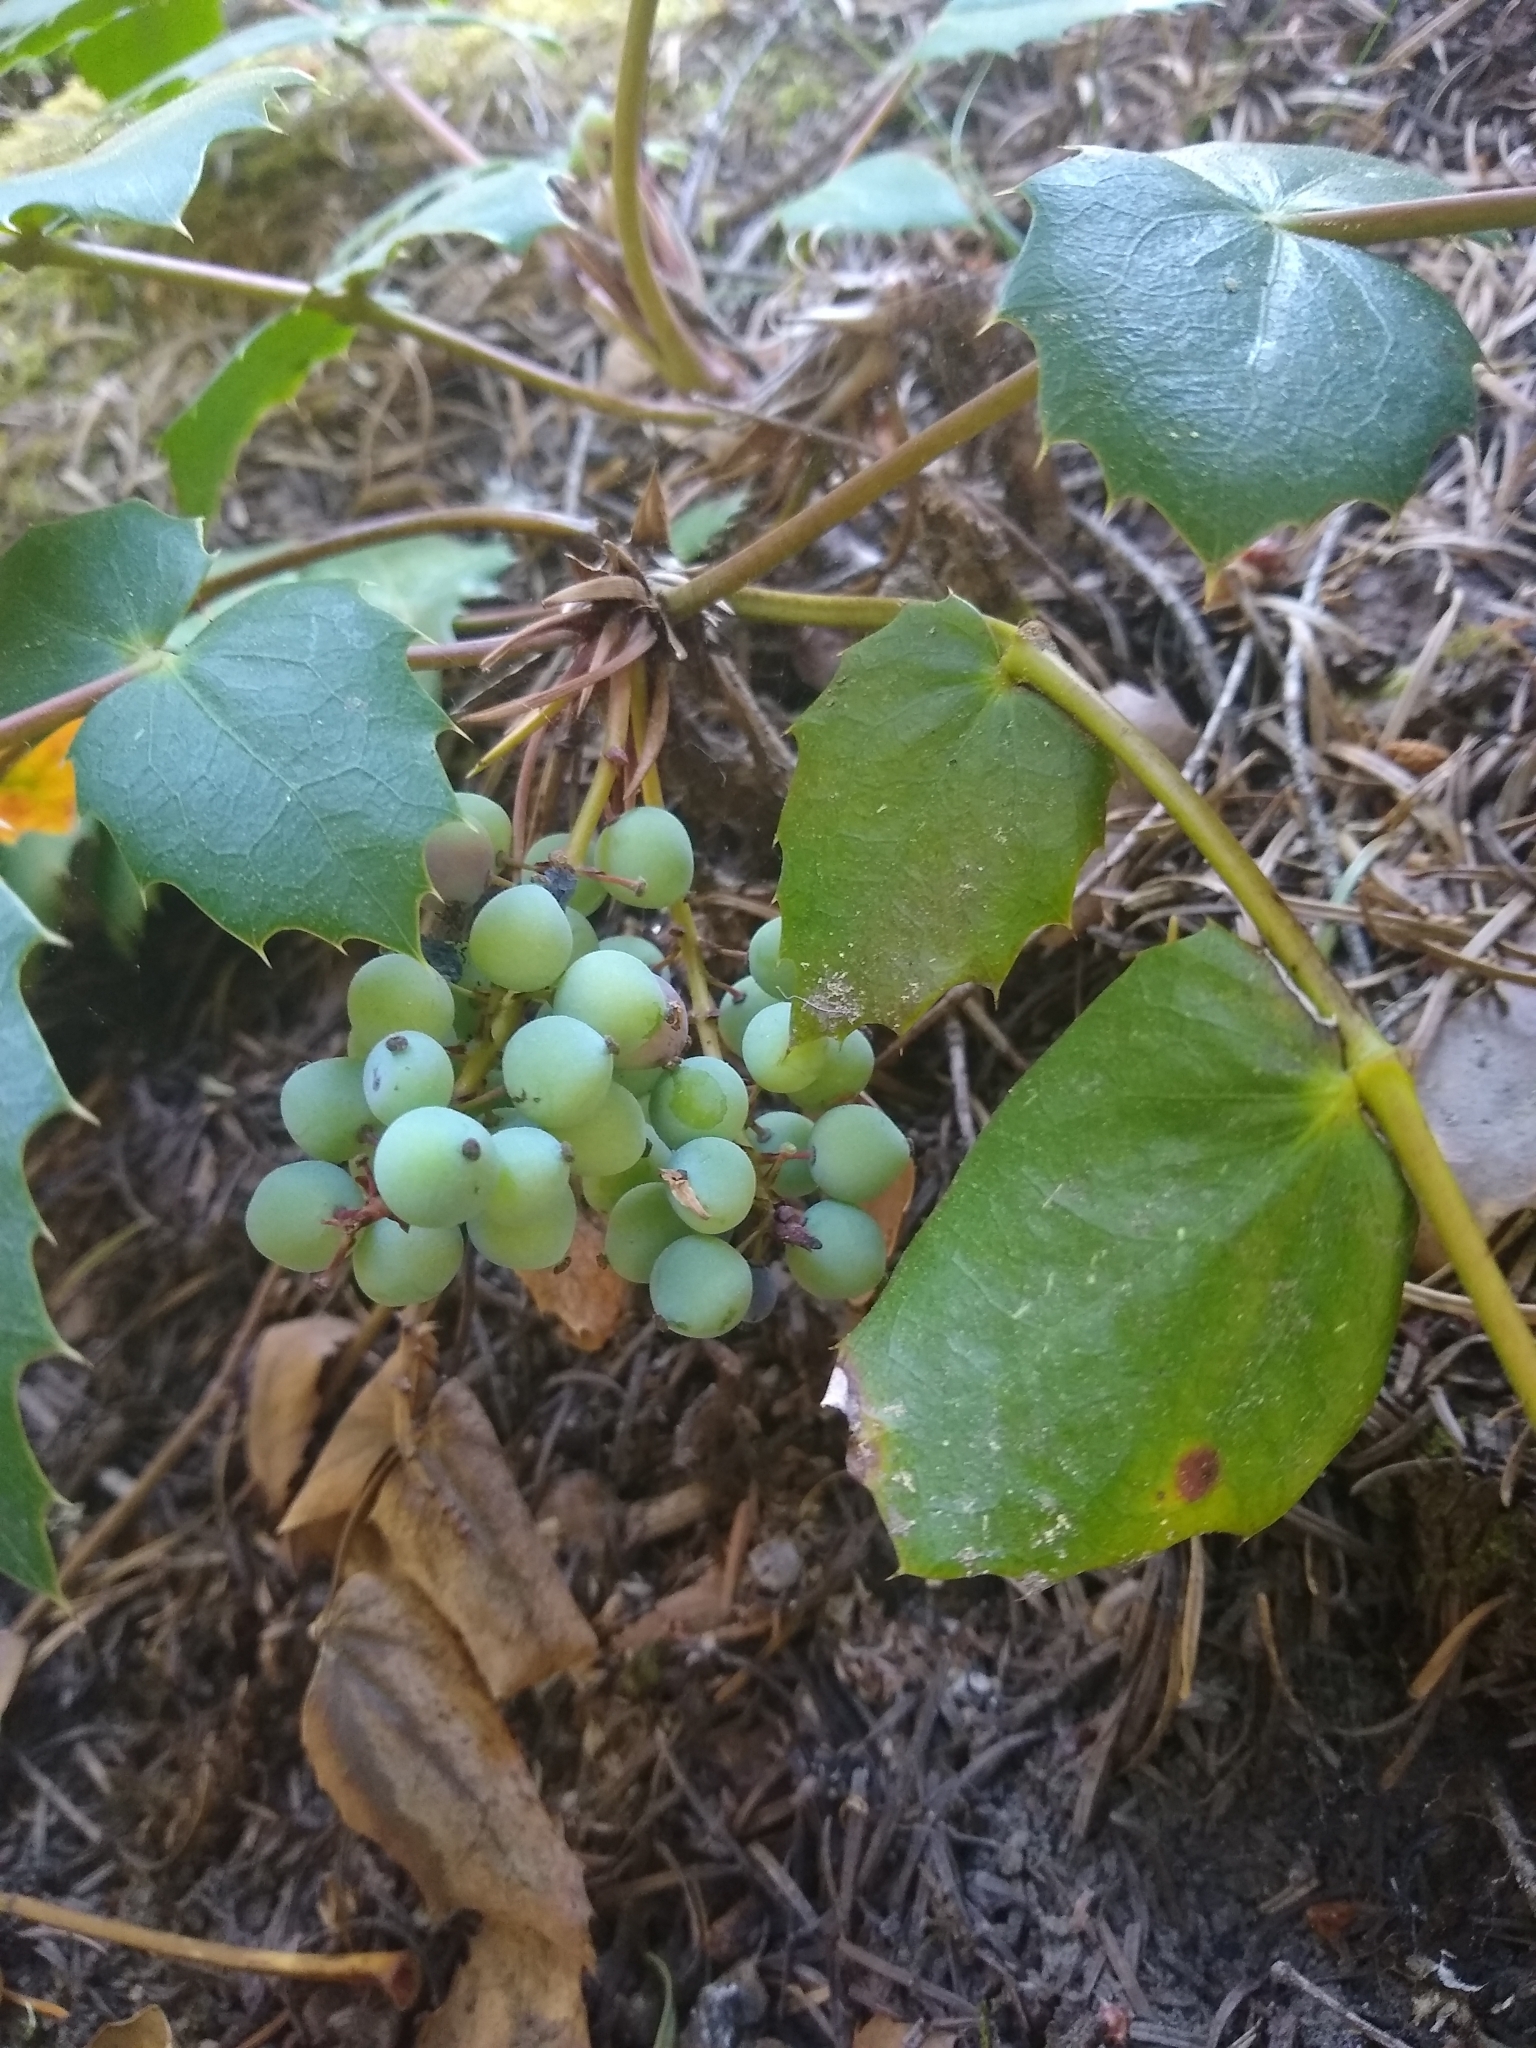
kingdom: Plantae
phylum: Tracheophyta
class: Magnoliopsida
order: Ranunculales
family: Berberidaceae
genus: Mahonia
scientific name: Mahonia nervosa
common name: Cascade oregon-grape
